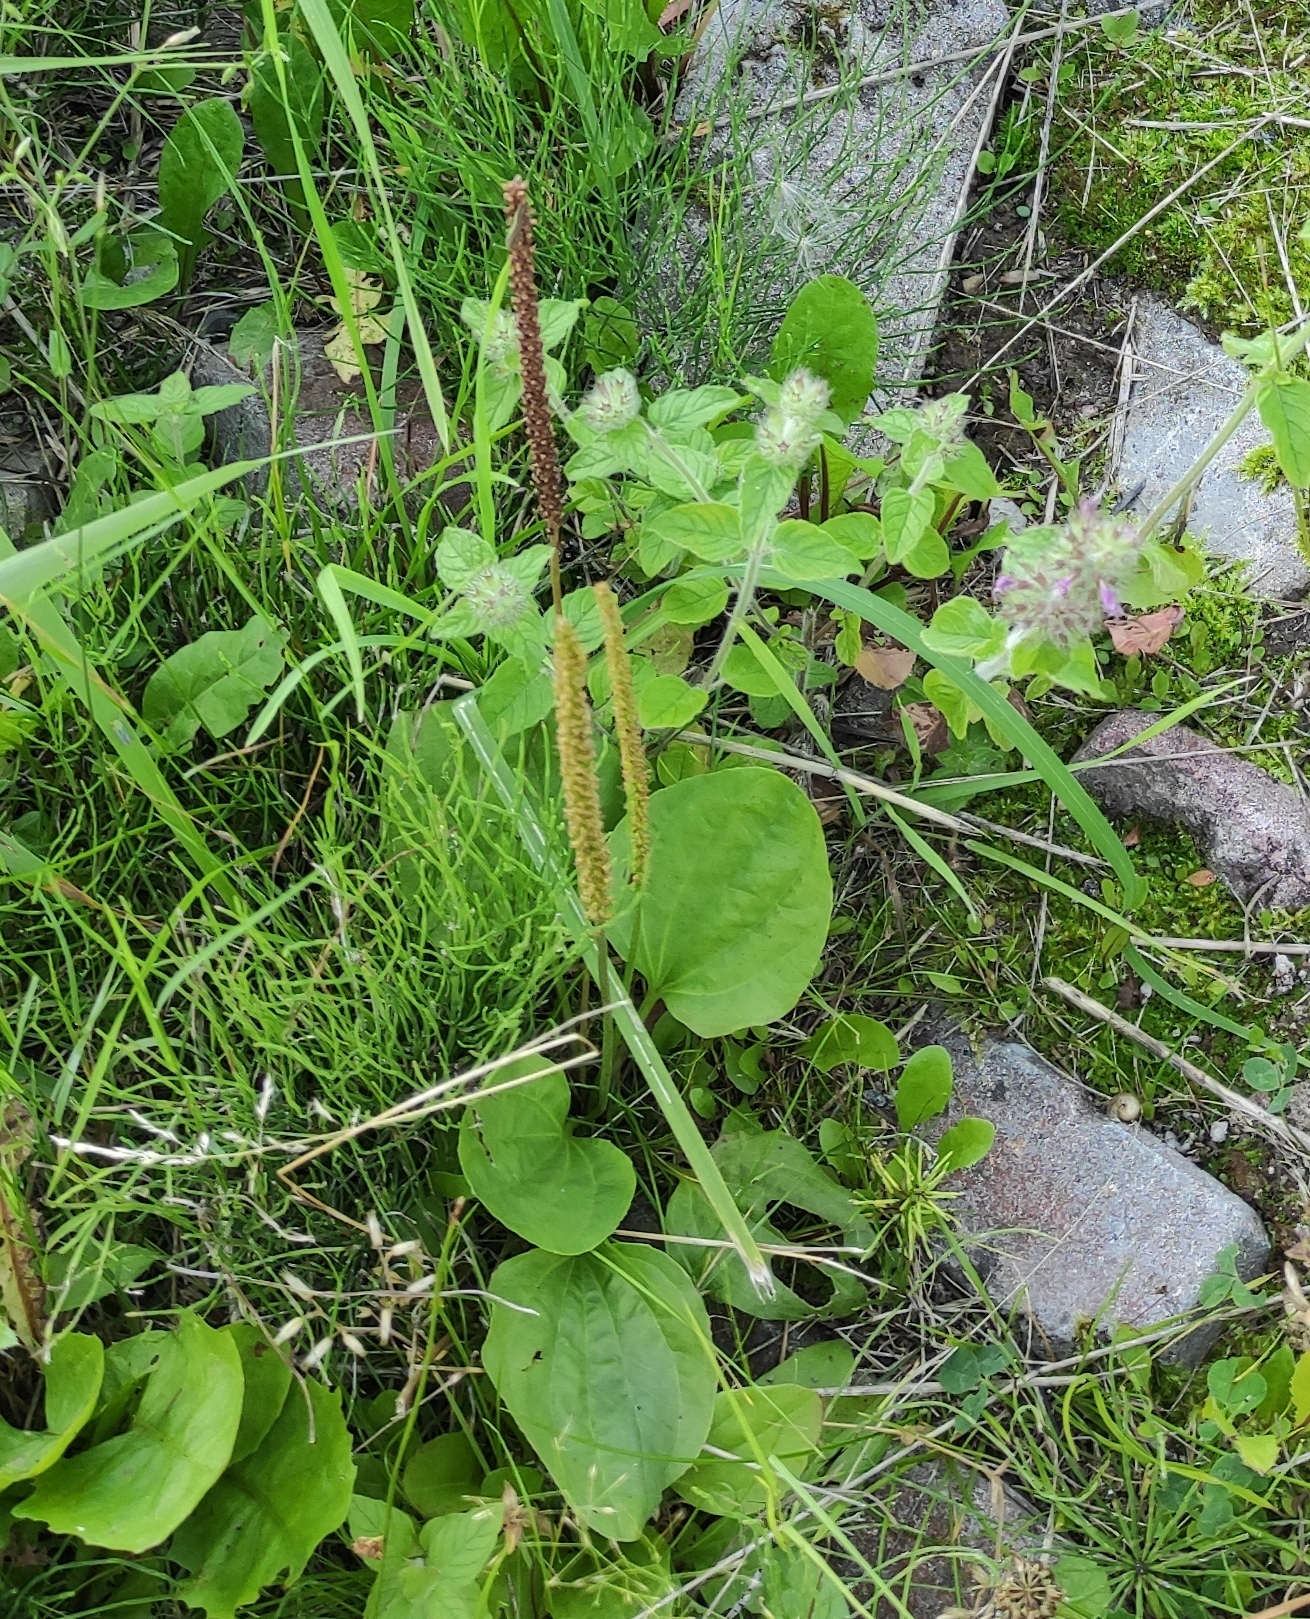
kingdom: Plantae
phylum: Tracheophyta
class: Magnoliopsida
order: Lamiales
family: Plantaginaceae
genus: Plantago
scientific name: Plantago major
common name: Common plantain
